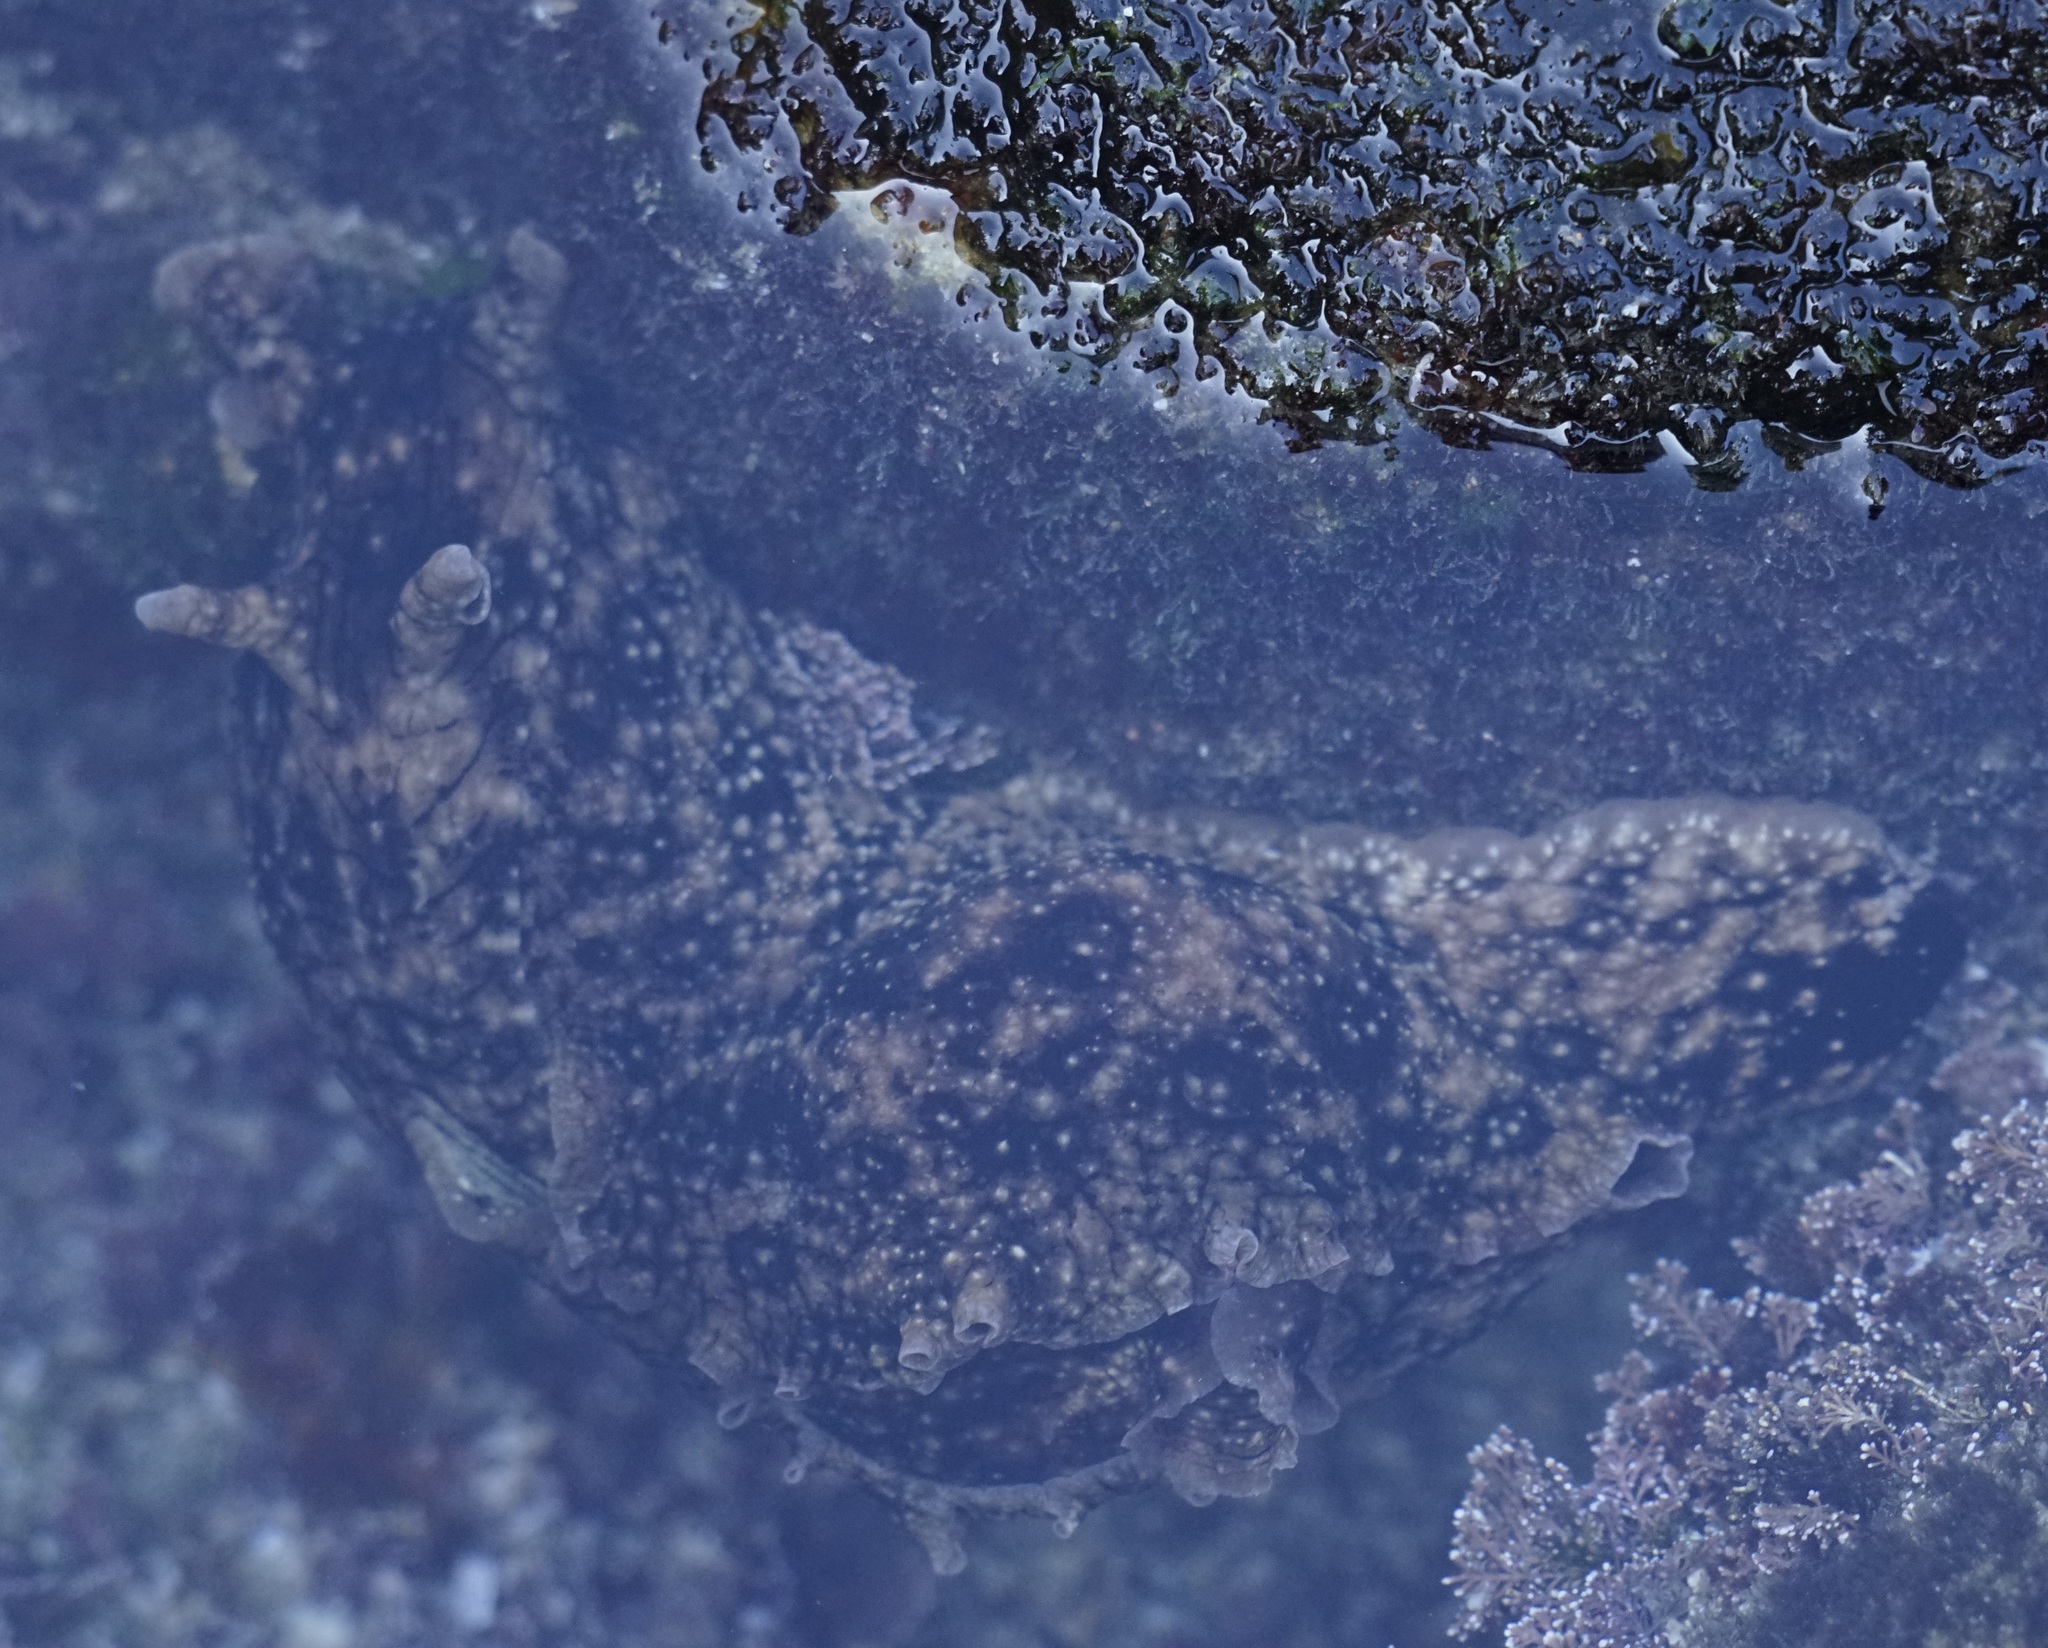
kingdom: Animalia
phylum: Mollusca
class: Gastropoda
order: Aplysiida
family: Aplysiidae
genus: Aplysia
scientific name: Aplysia argus
